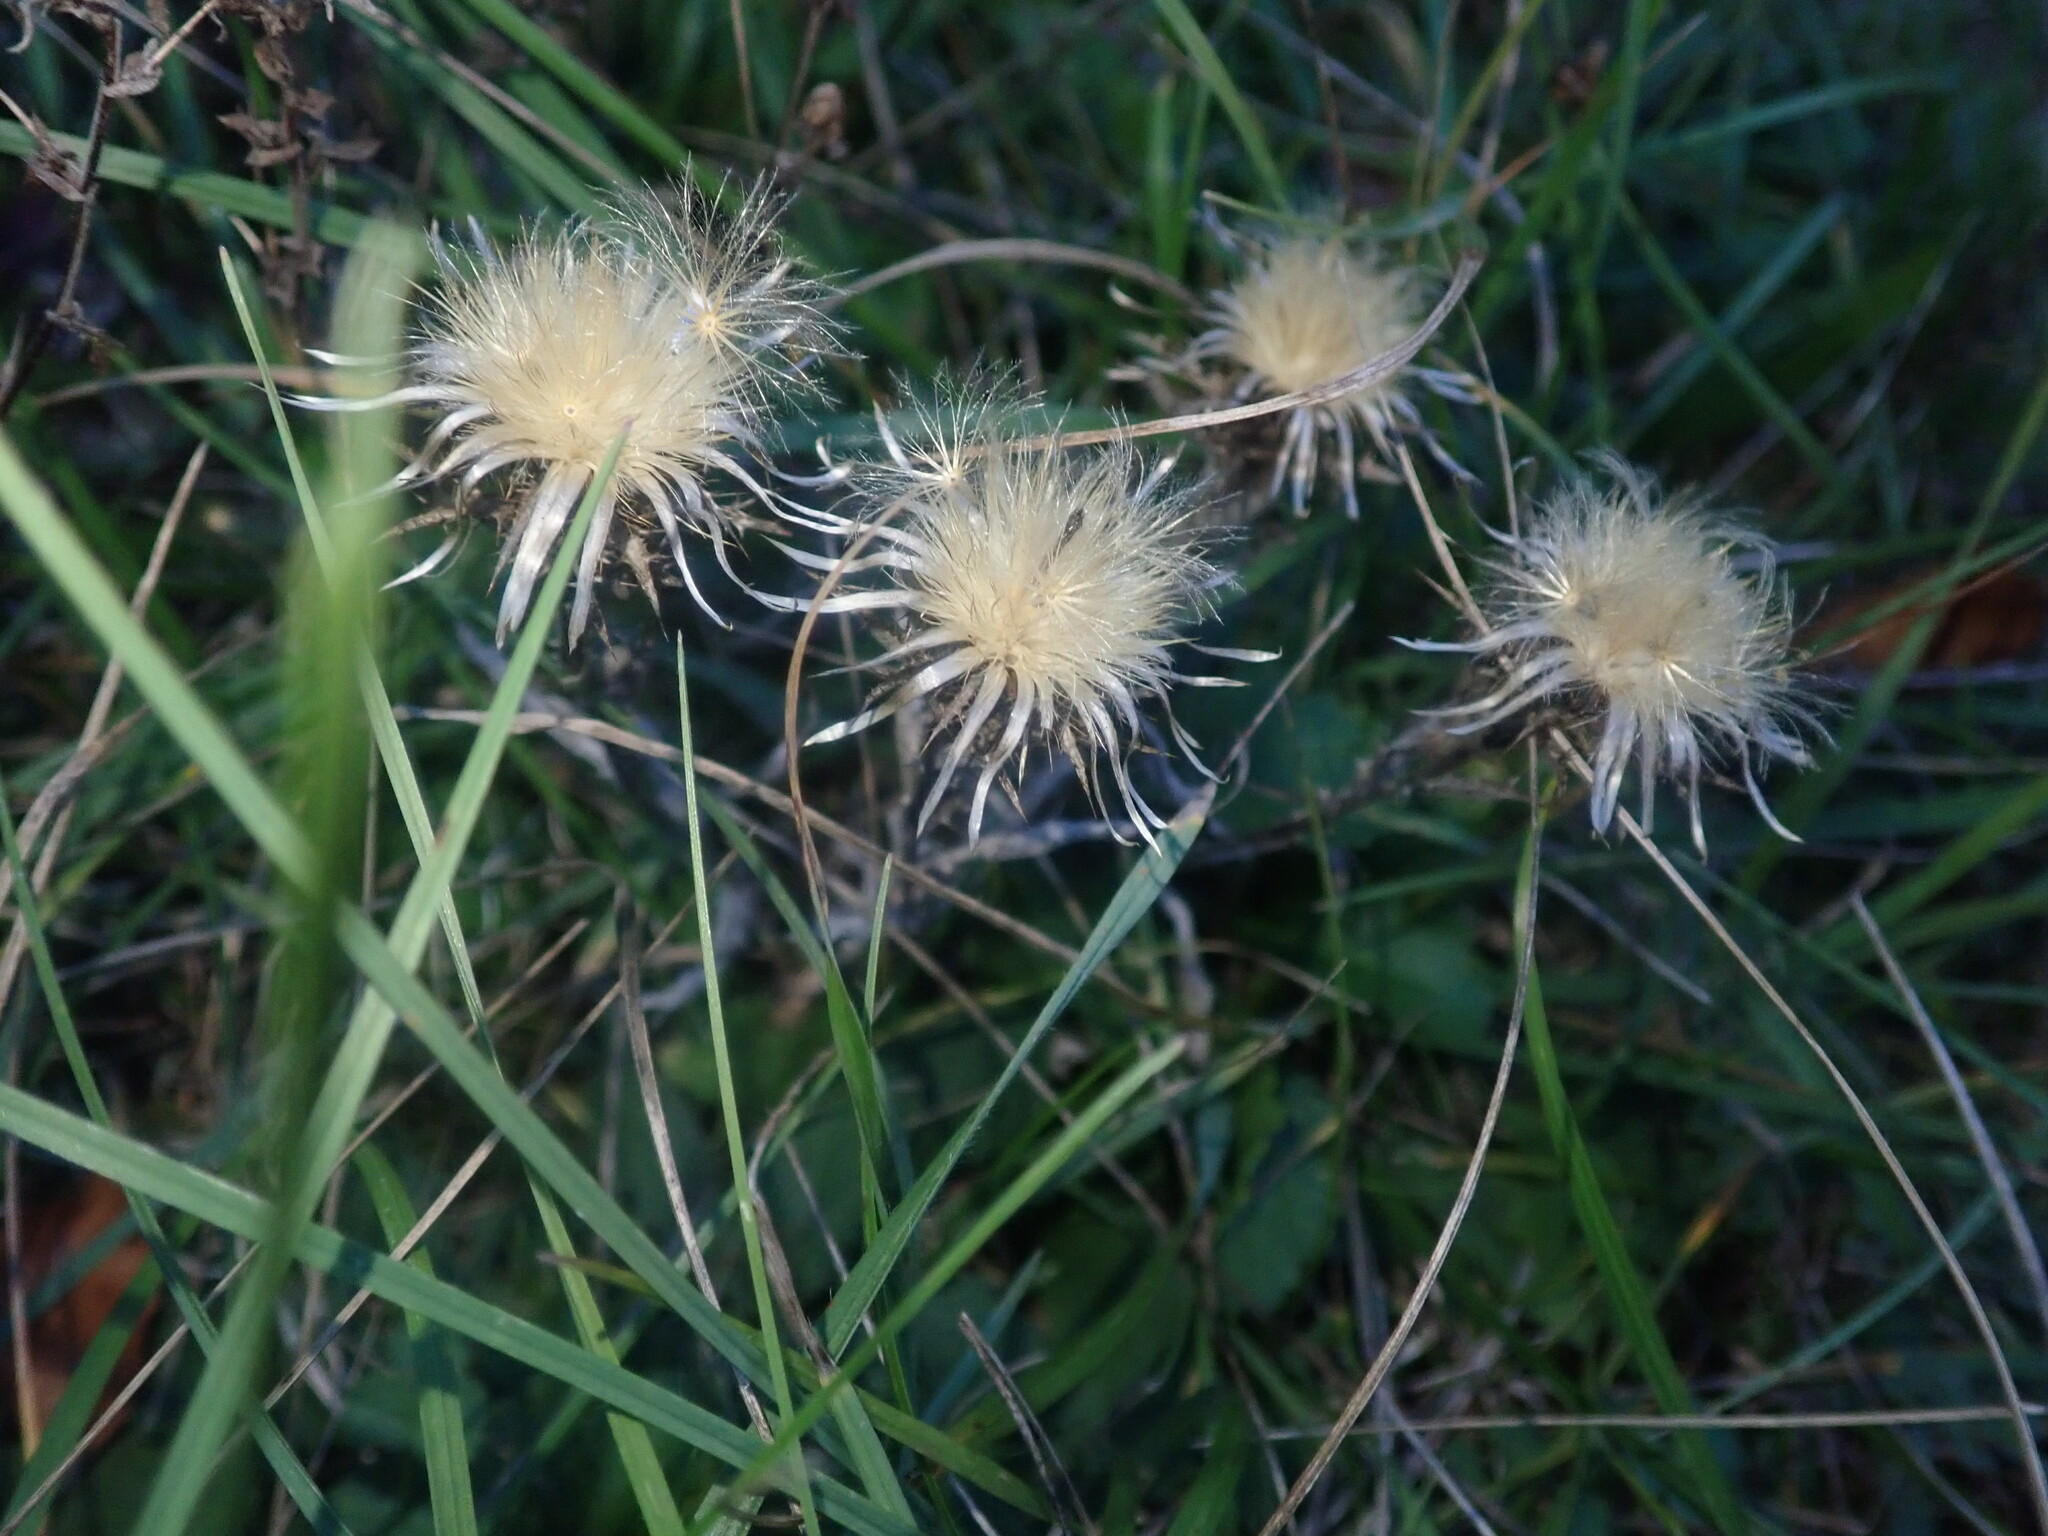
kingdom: Plantae
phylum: Tracheophyta
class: Magnoliopsida
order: Asterales
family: Asteraceae
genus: Carlina
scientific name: Carlina vulgaris
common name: Carline thistle
